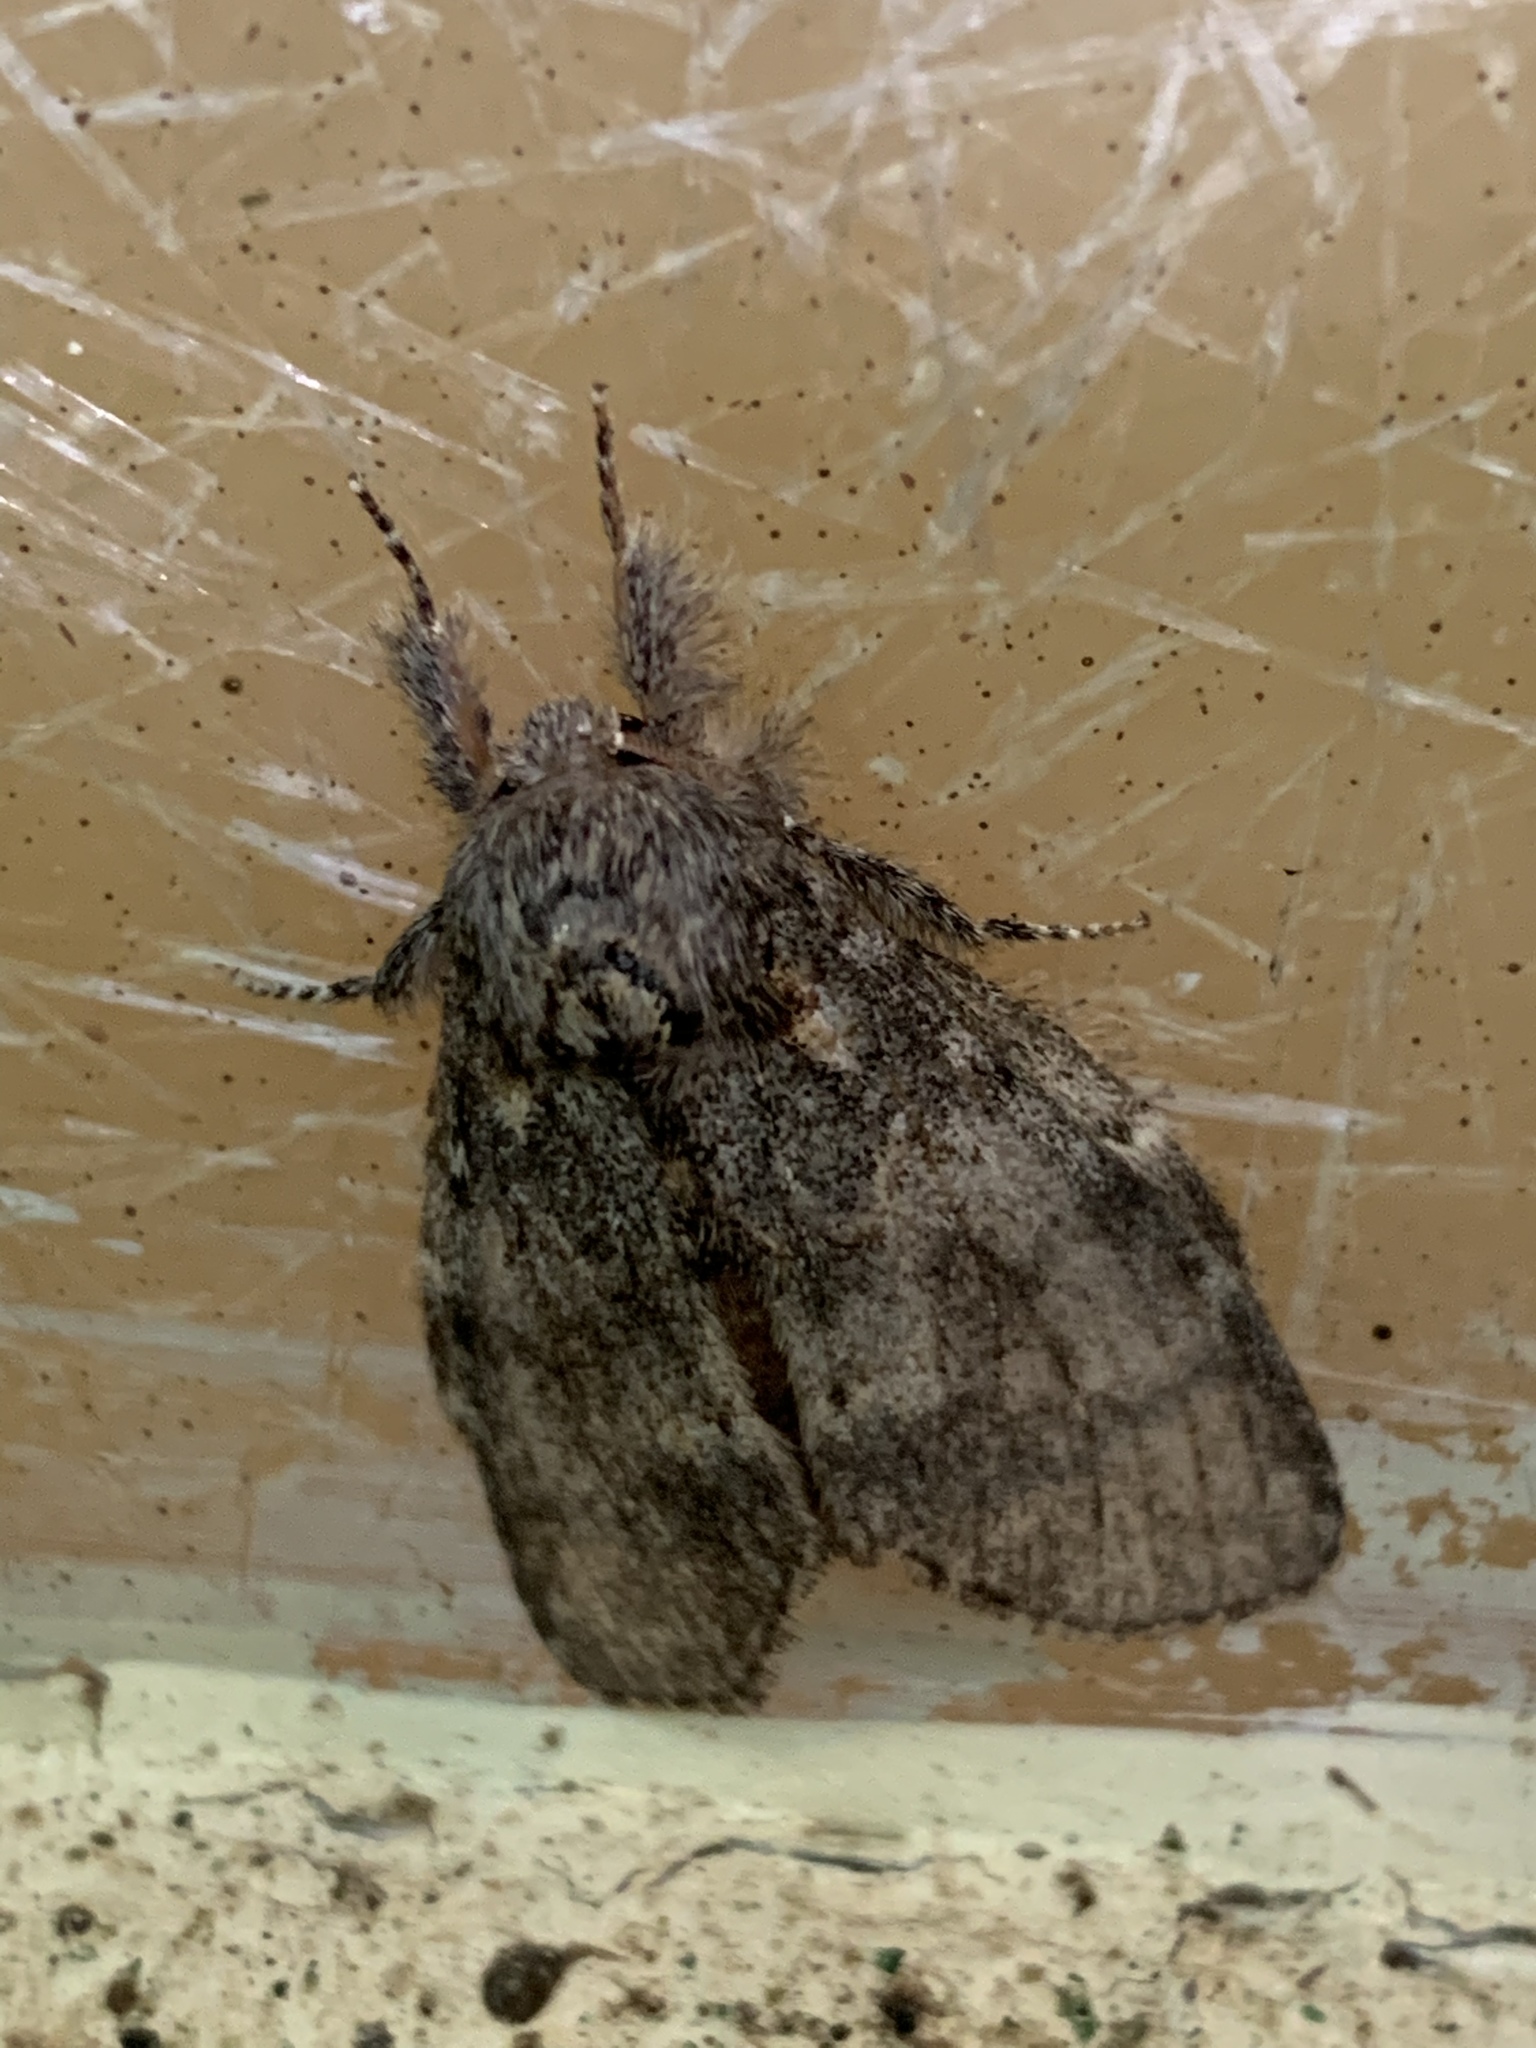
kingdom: Animalia
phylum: Arthropoda
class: Insecta
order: Lepidoptera
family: Notodontidae
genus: Peridea
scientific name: Peridea angulosa
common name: Angulose prominent
